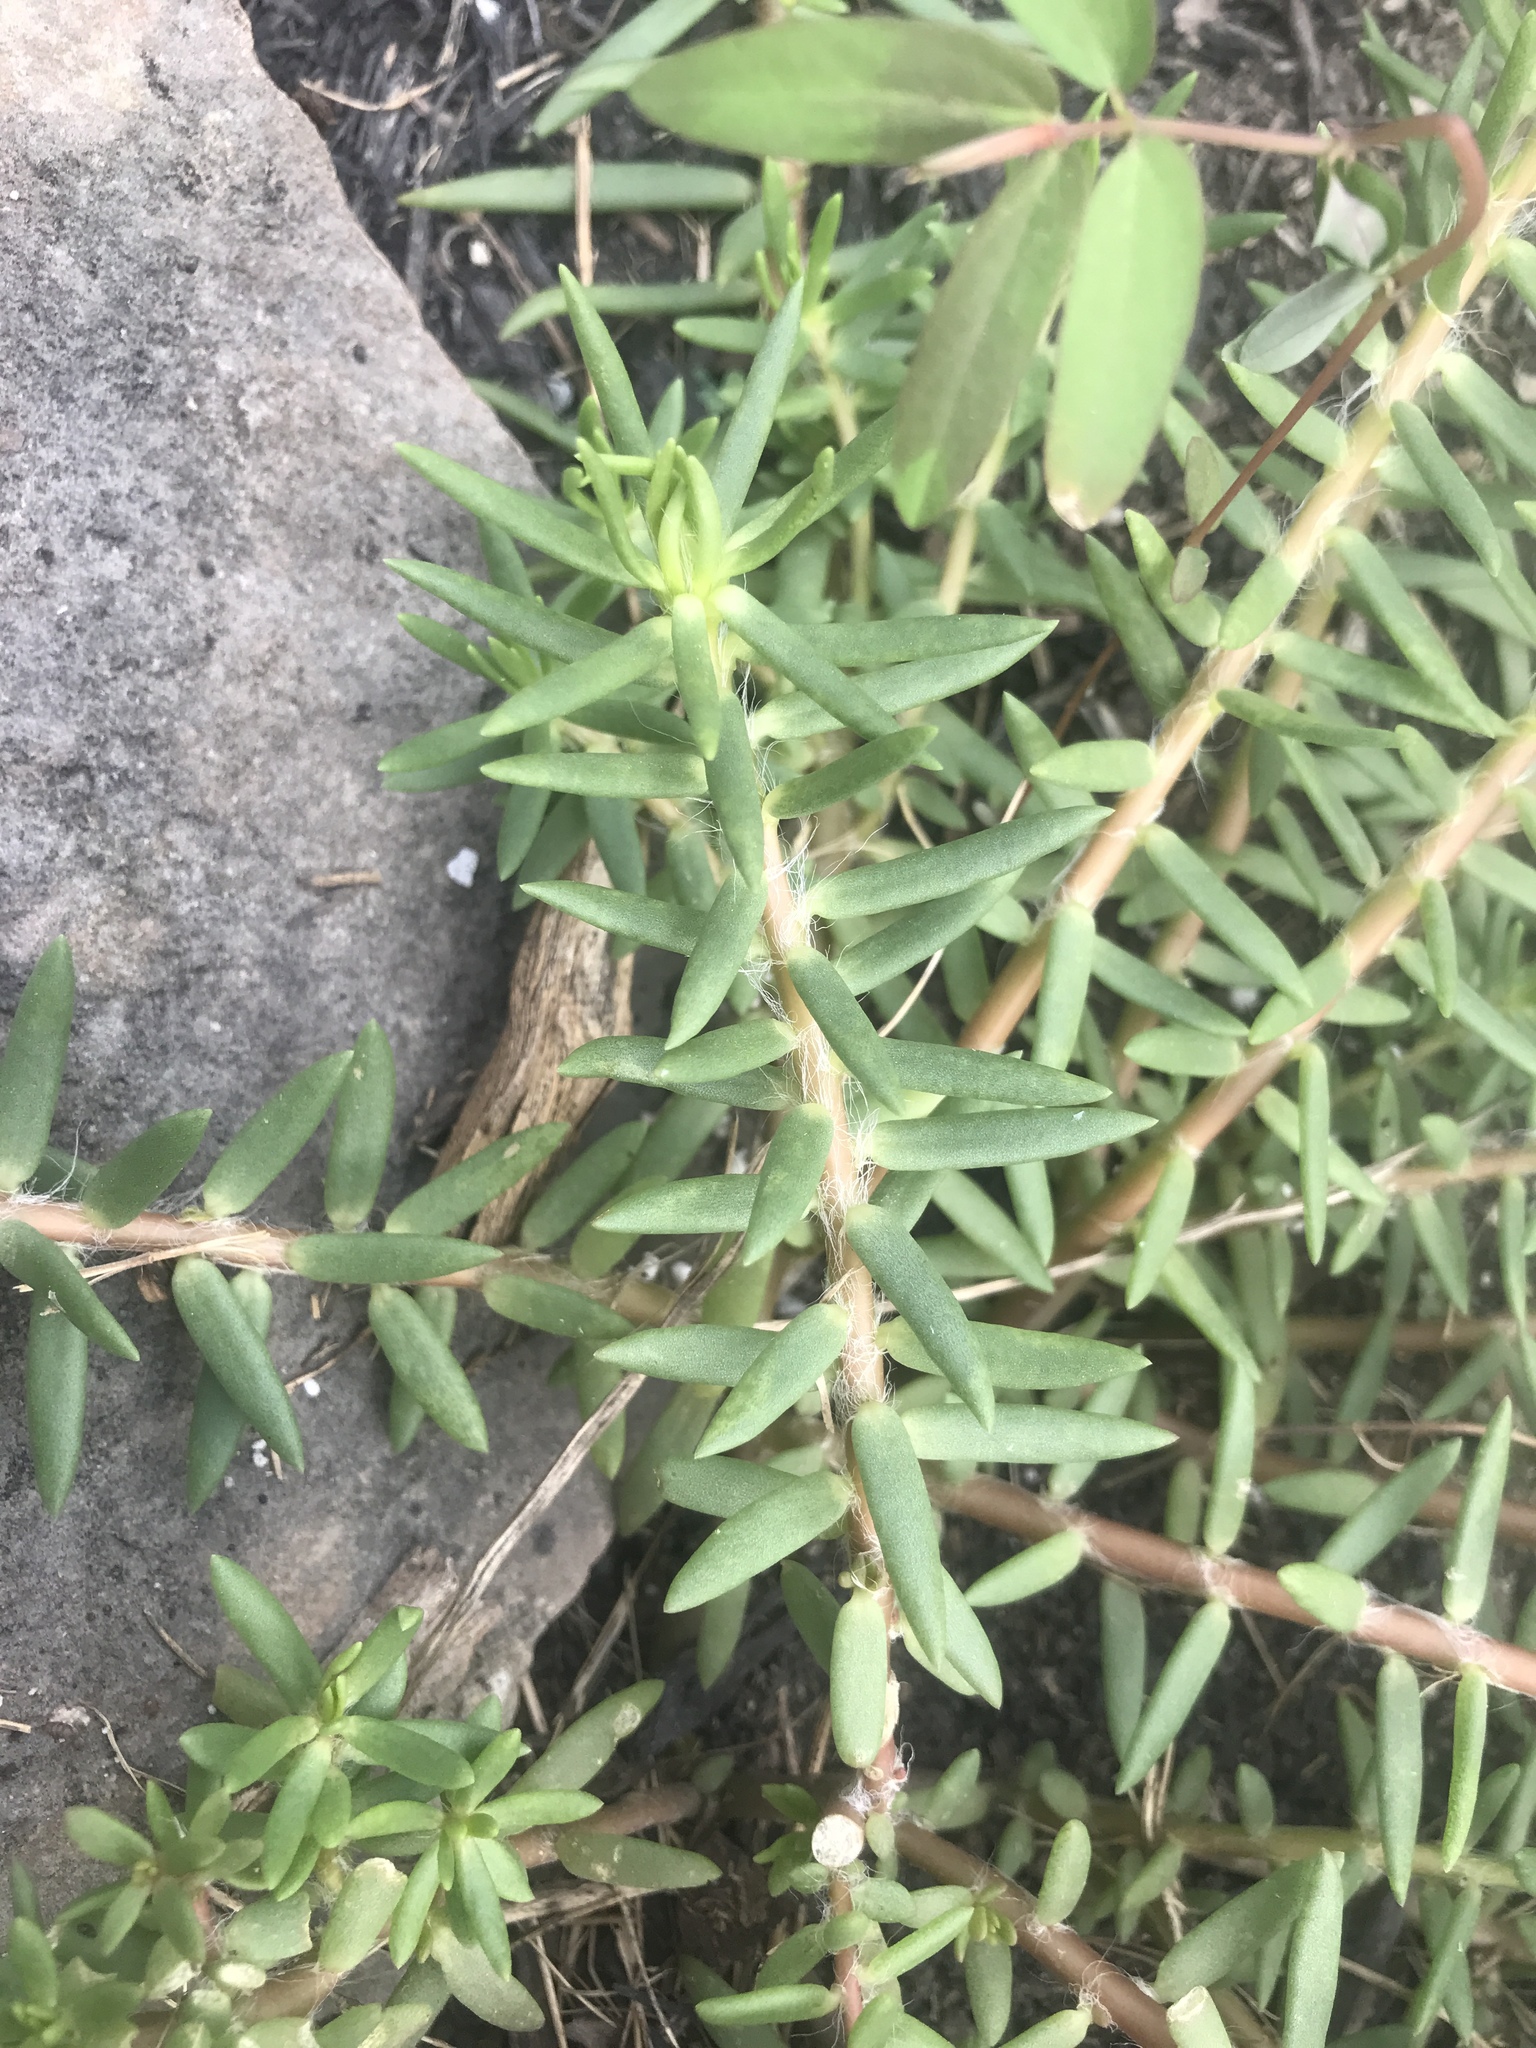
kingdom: Plantae
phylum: Tracheophyta
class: Magnoliopsida
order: Caryophyllales
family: Portulacaceae
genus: Portulaca
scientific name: Portulaca pilosa
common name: Kiss me quick
